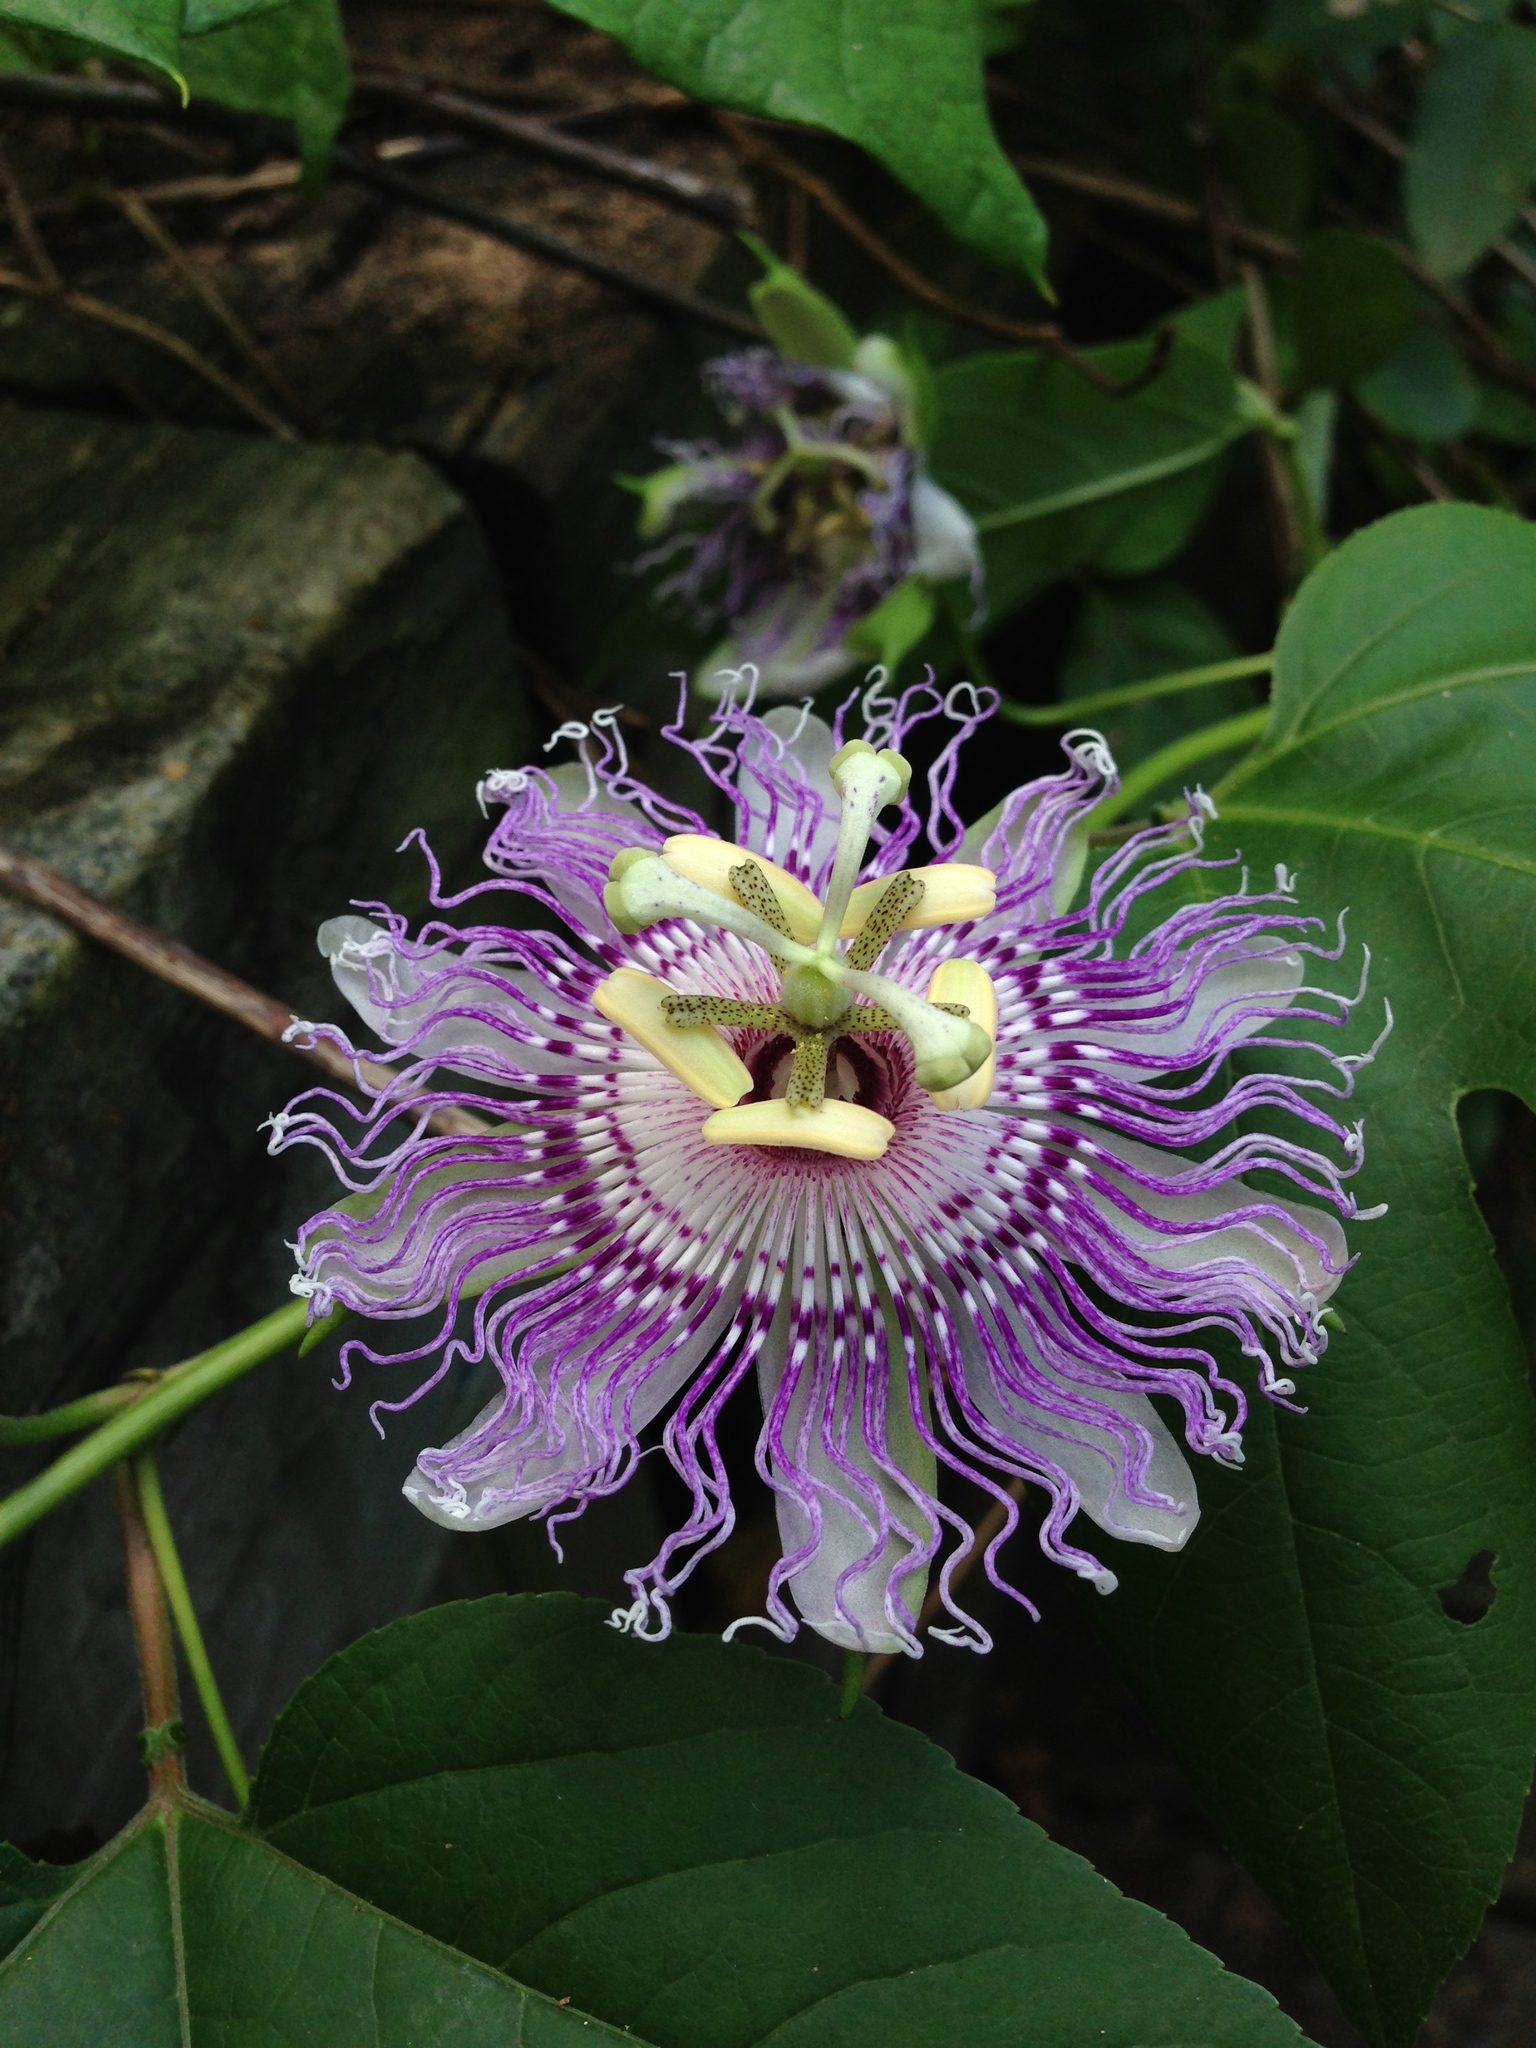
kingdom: Plantae
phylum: Tracheophyta
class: Magnoliopsida
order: Malpighiales
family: Passifloraceae
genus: Passiflora
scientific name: Passiflora incarnata
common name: Apricot-vine
